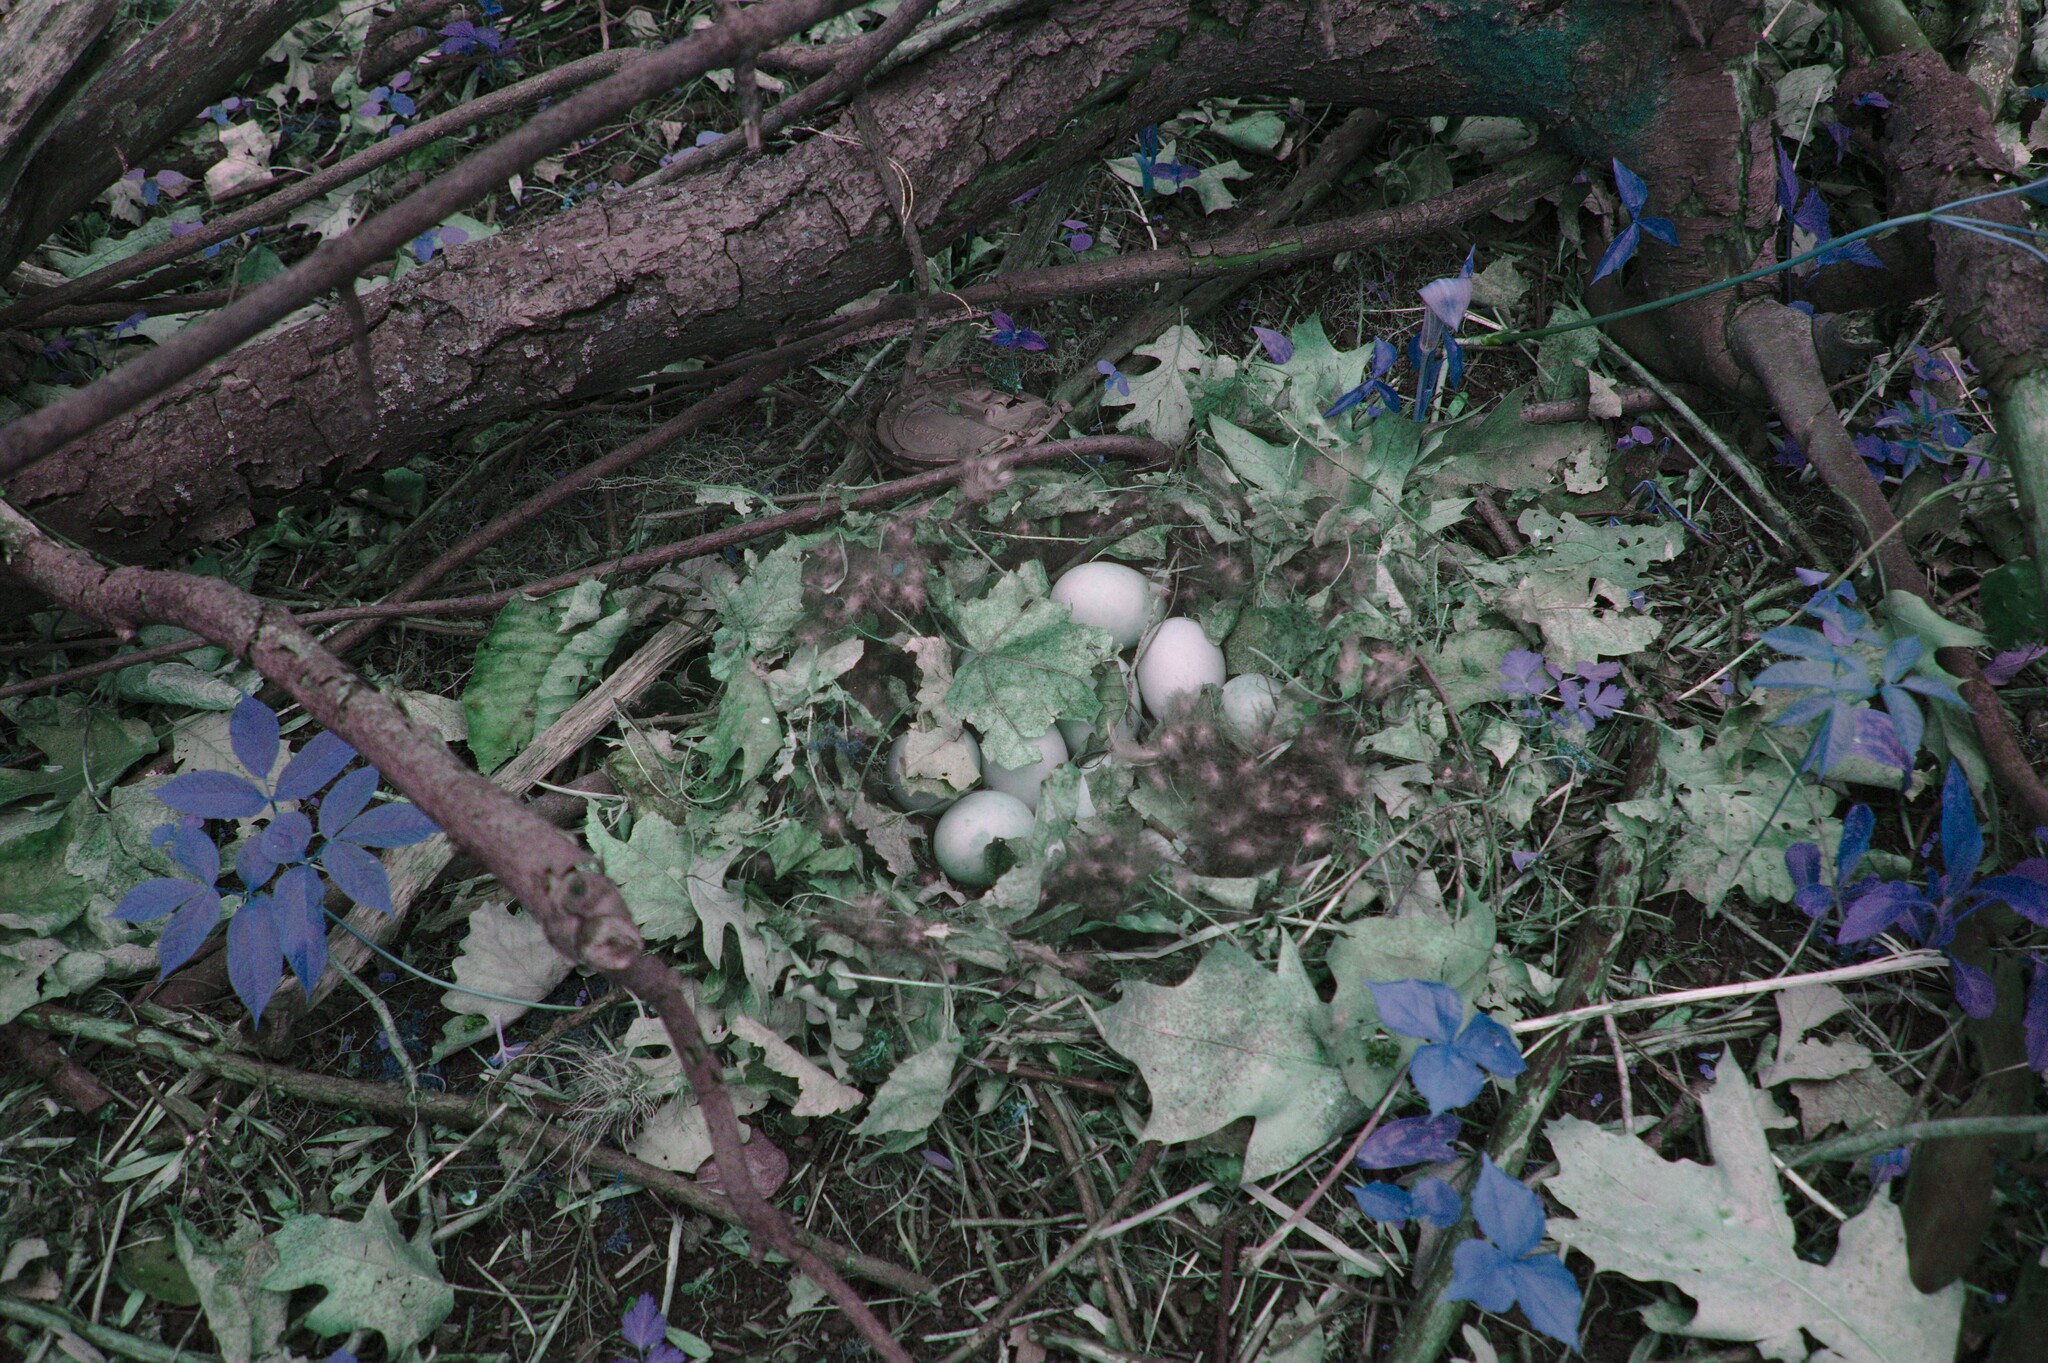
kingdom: Plantae
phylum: Tracheophyta
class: Liliopsida
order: Alismatales
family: Araceae
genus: Arisaema
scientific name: Arisaema triphyllum
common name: Jack-in-the-pulpit
